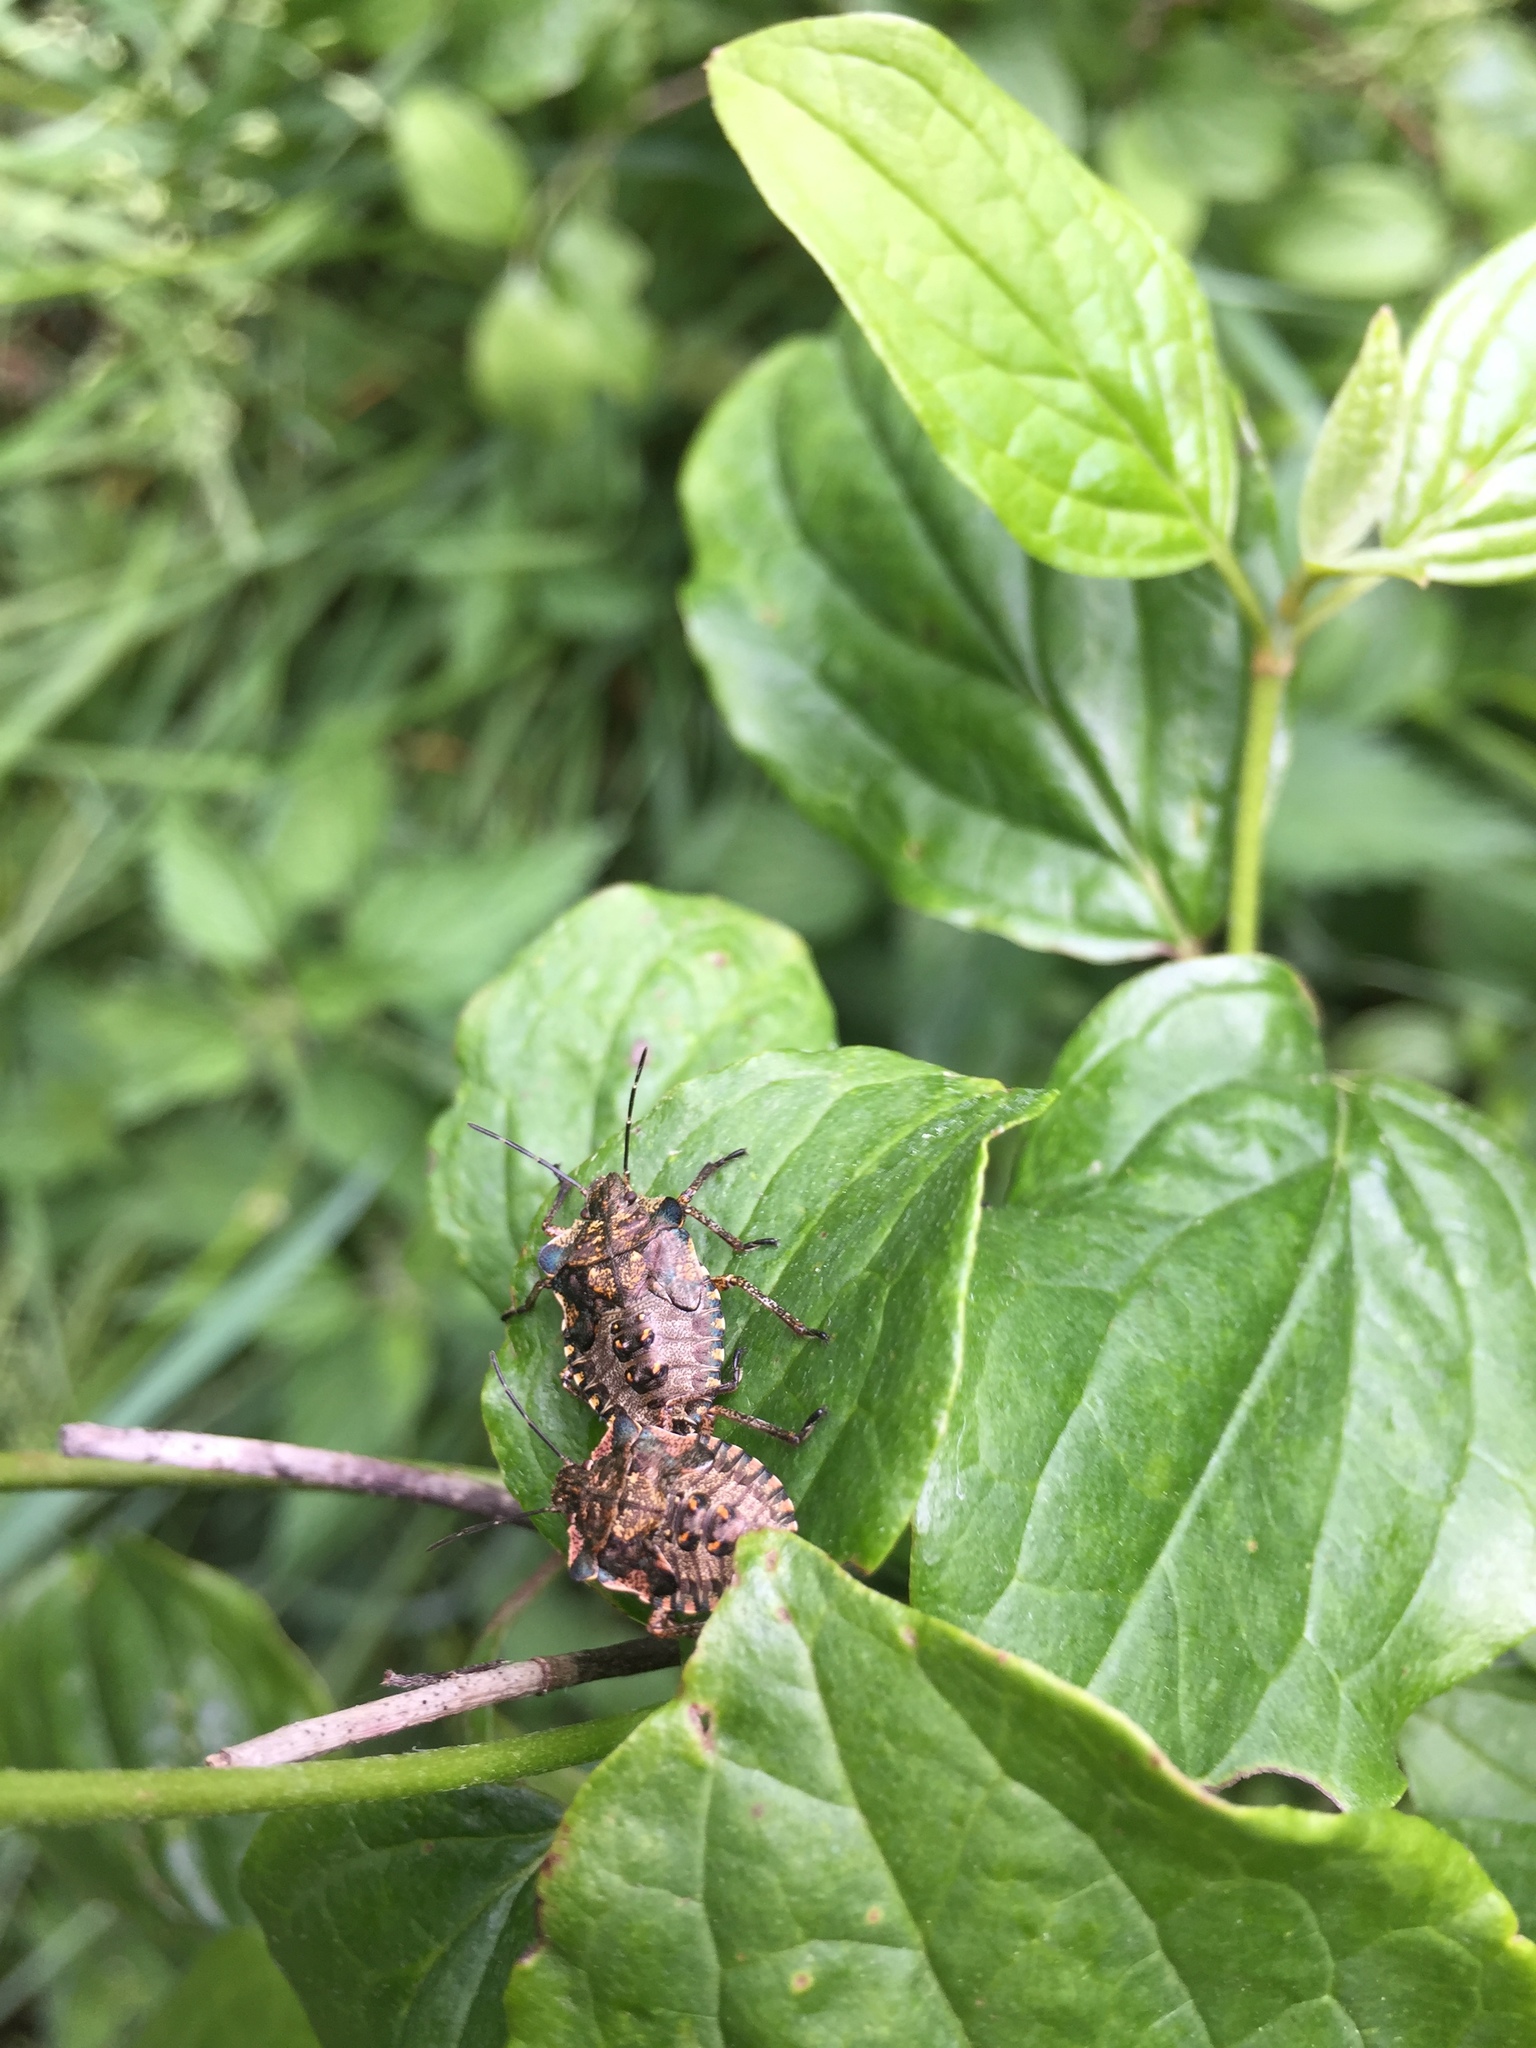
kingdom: Animalia
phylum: Arthropoda
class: Insecta
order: Hemiptera
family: Pentatomidae
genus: Pentatoma
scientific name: Pentatoma rufipes
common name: Forest bug
